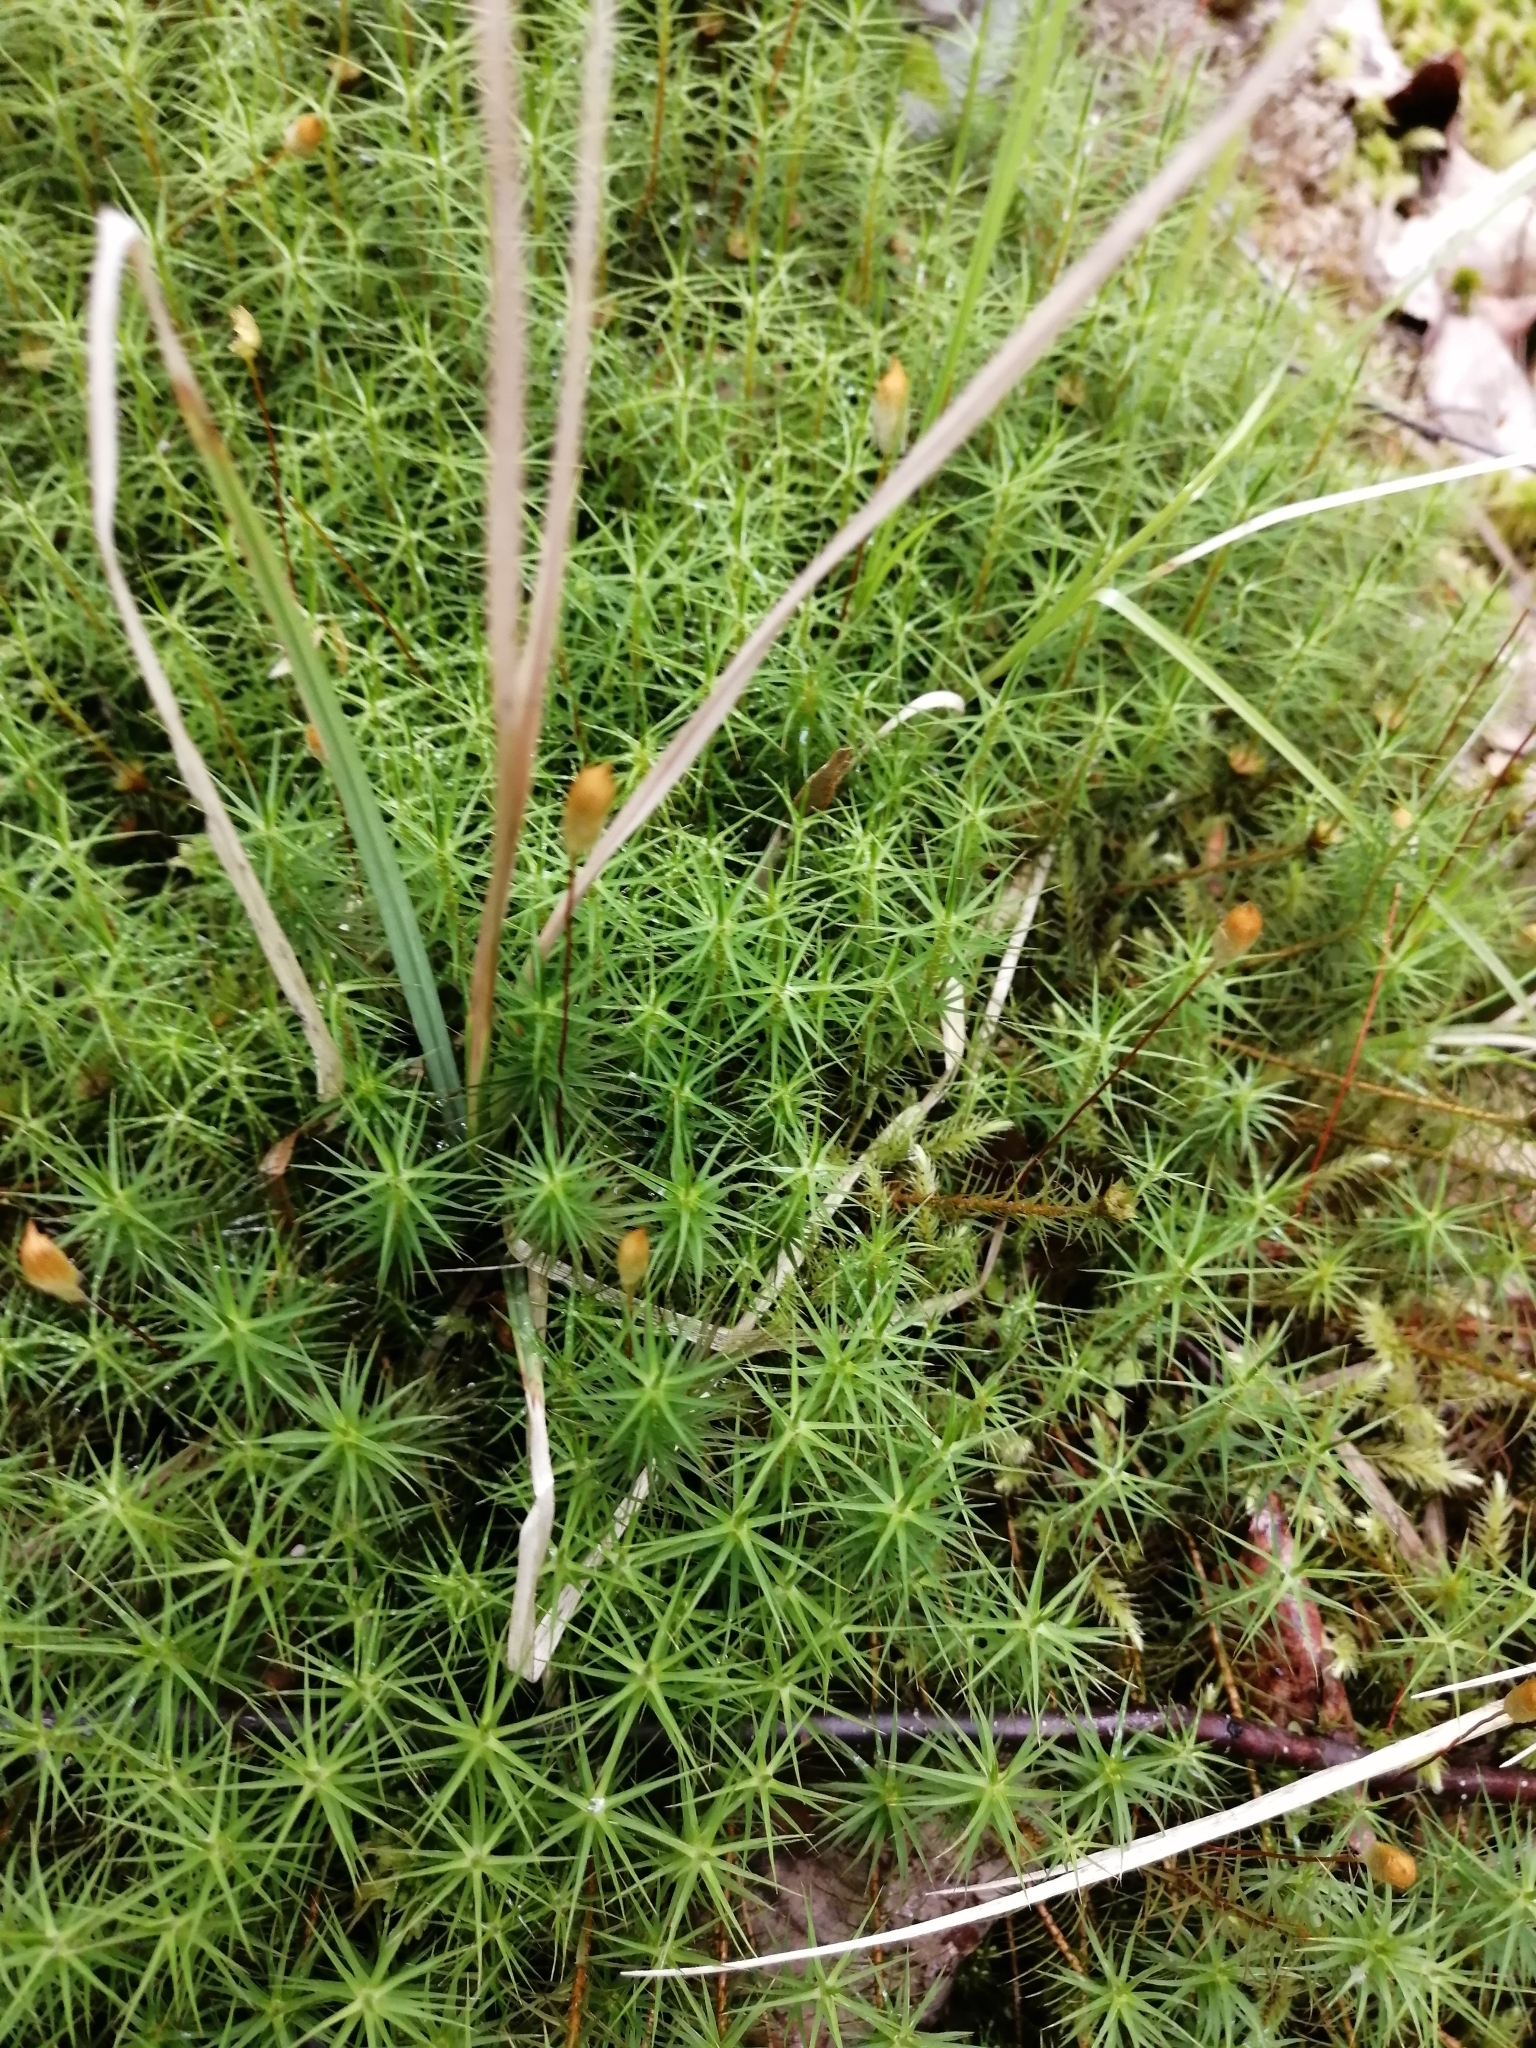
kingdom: Plantae
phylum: Bryophyta
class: Polytrichopsida
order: Polytrichales
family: Polytrichaceae
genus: Polytrichum
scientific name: Polytrichum commune
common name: Common haircap
